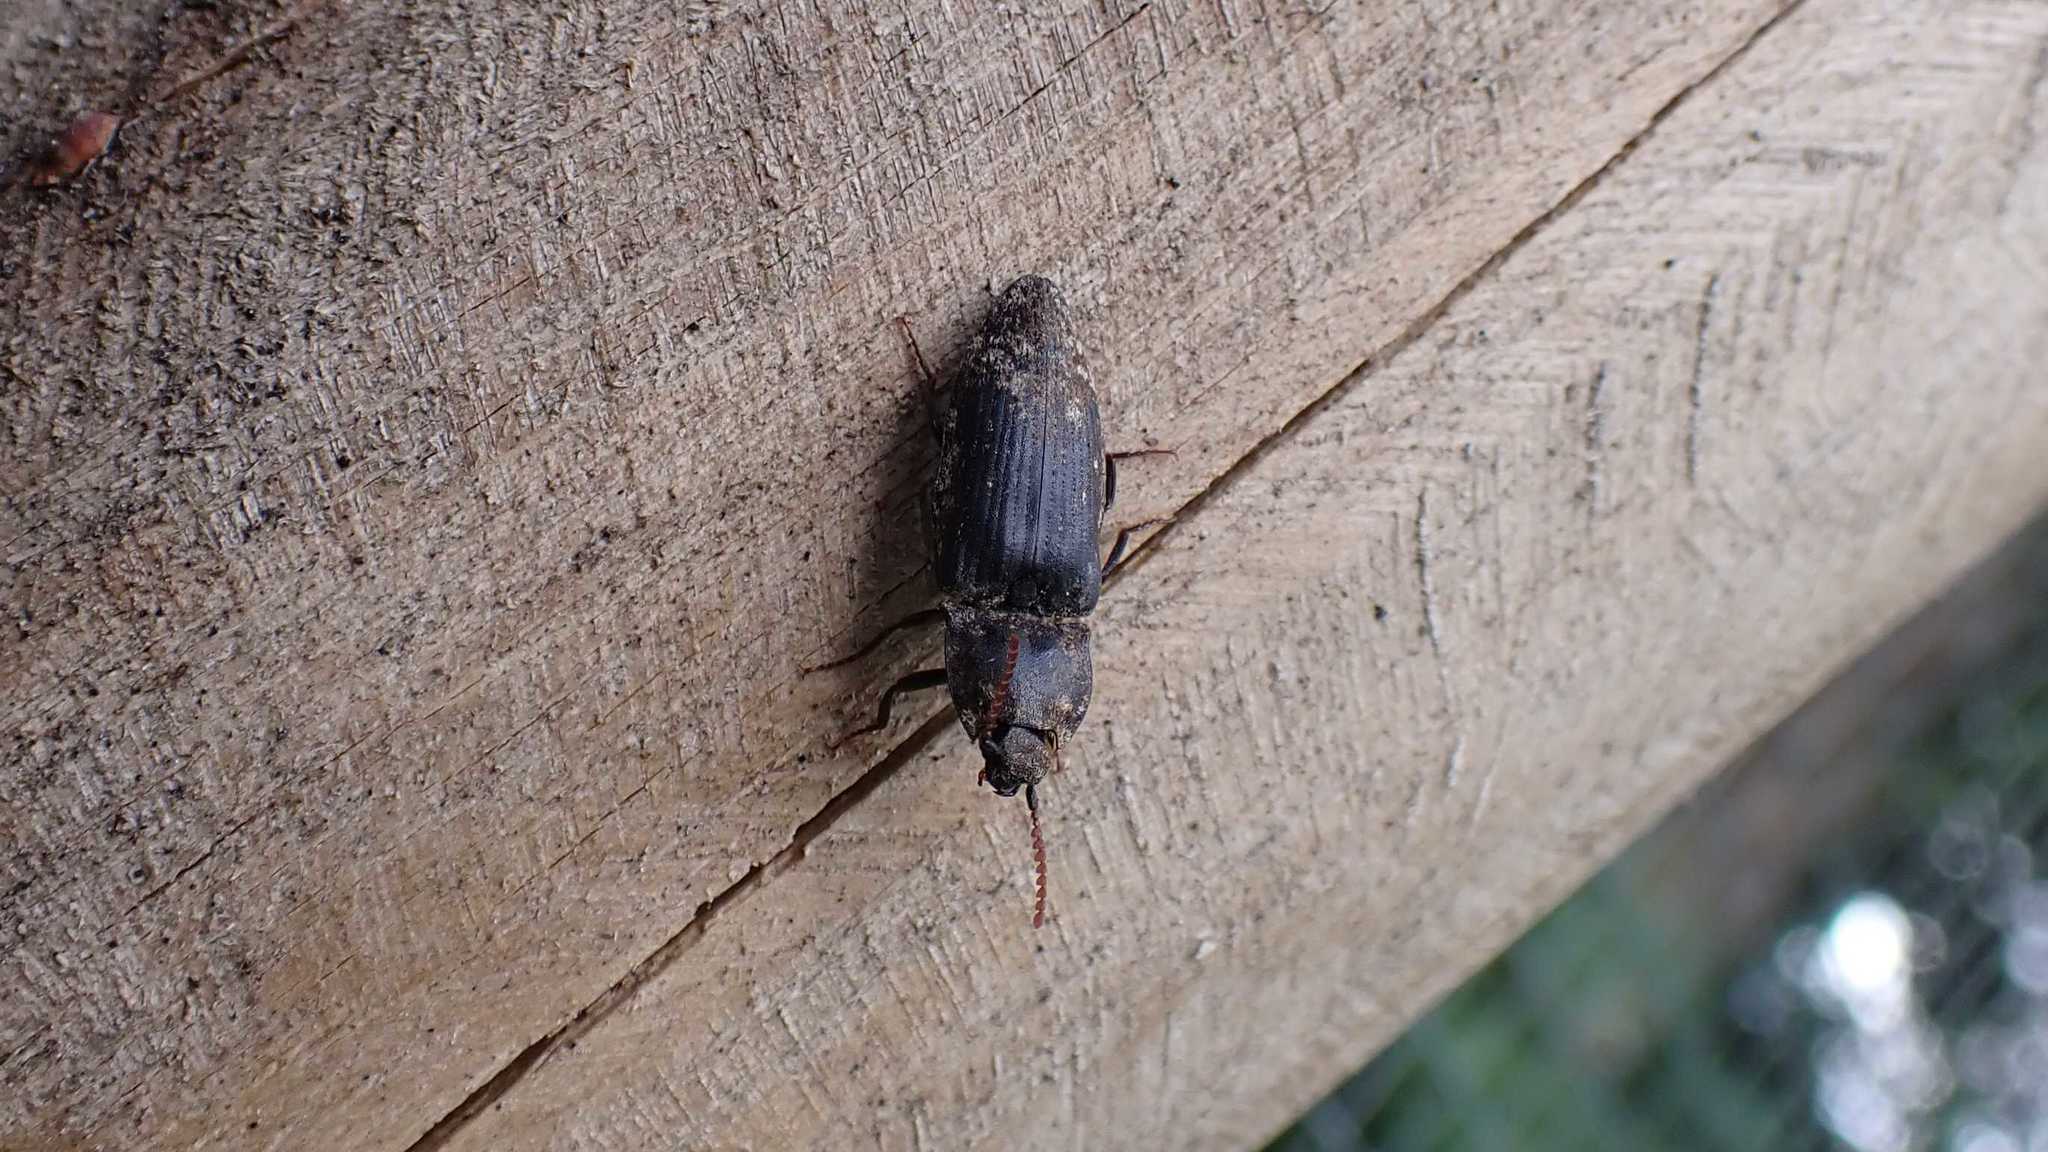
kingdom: Animalia
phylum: Arthropoda
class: Insecta
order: Coleoptera
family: Elateridae
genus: Agrypnus
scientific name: Agrypnus murinus
